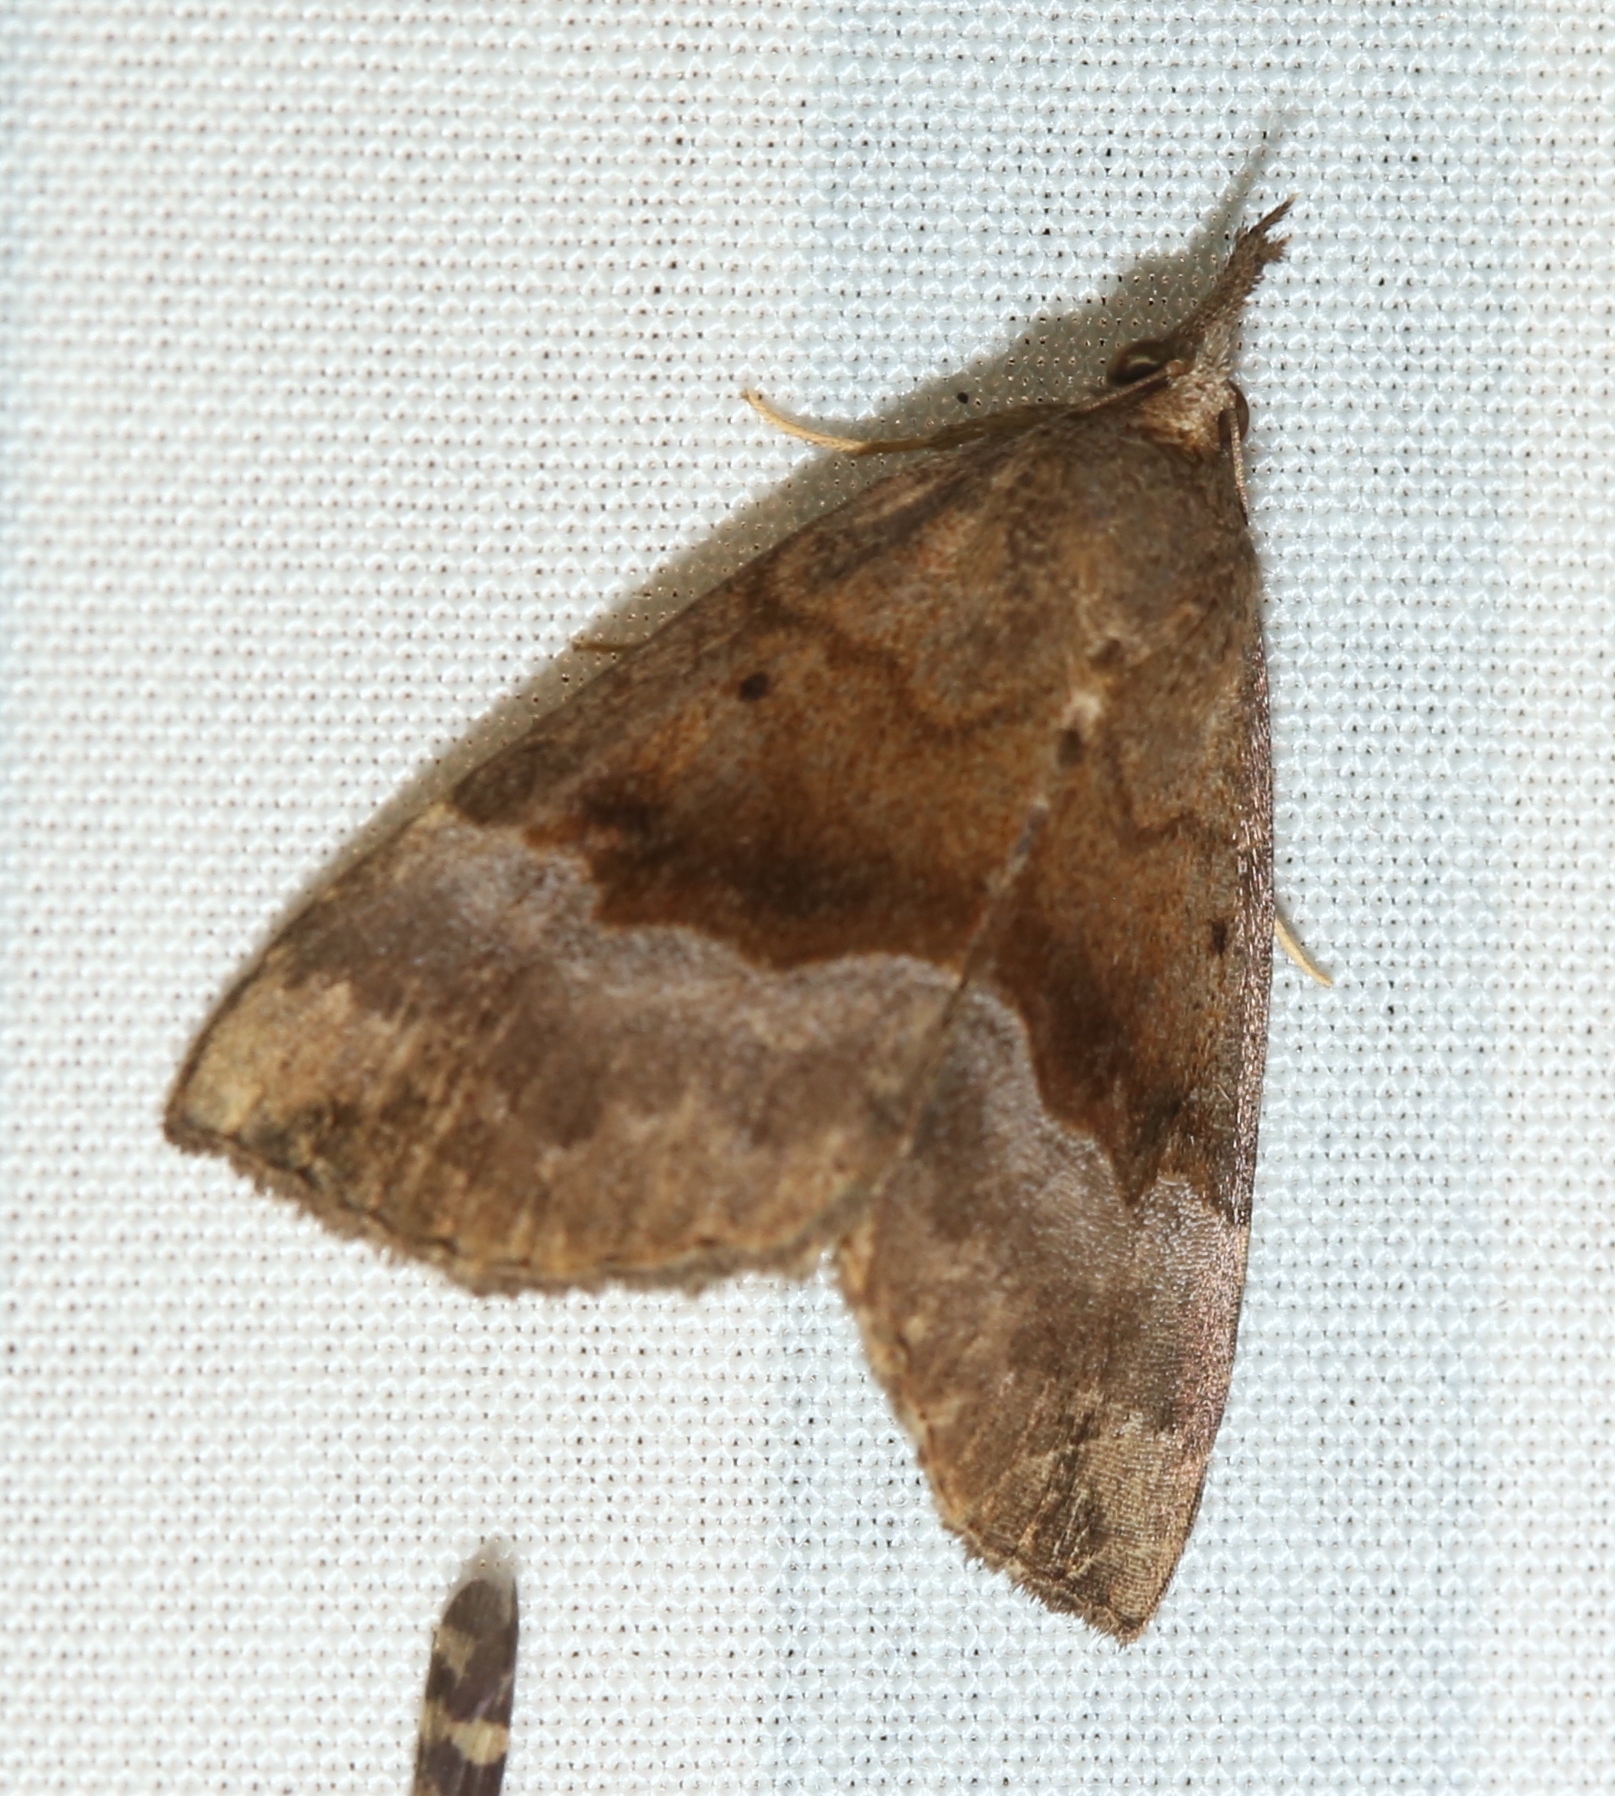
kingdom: Animalia
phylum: Arthropoda
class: Insecta
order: Lepidoptera
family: Erebidae
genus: Hypena
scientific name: Hypena madefactalis
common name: Gray-edged snout
